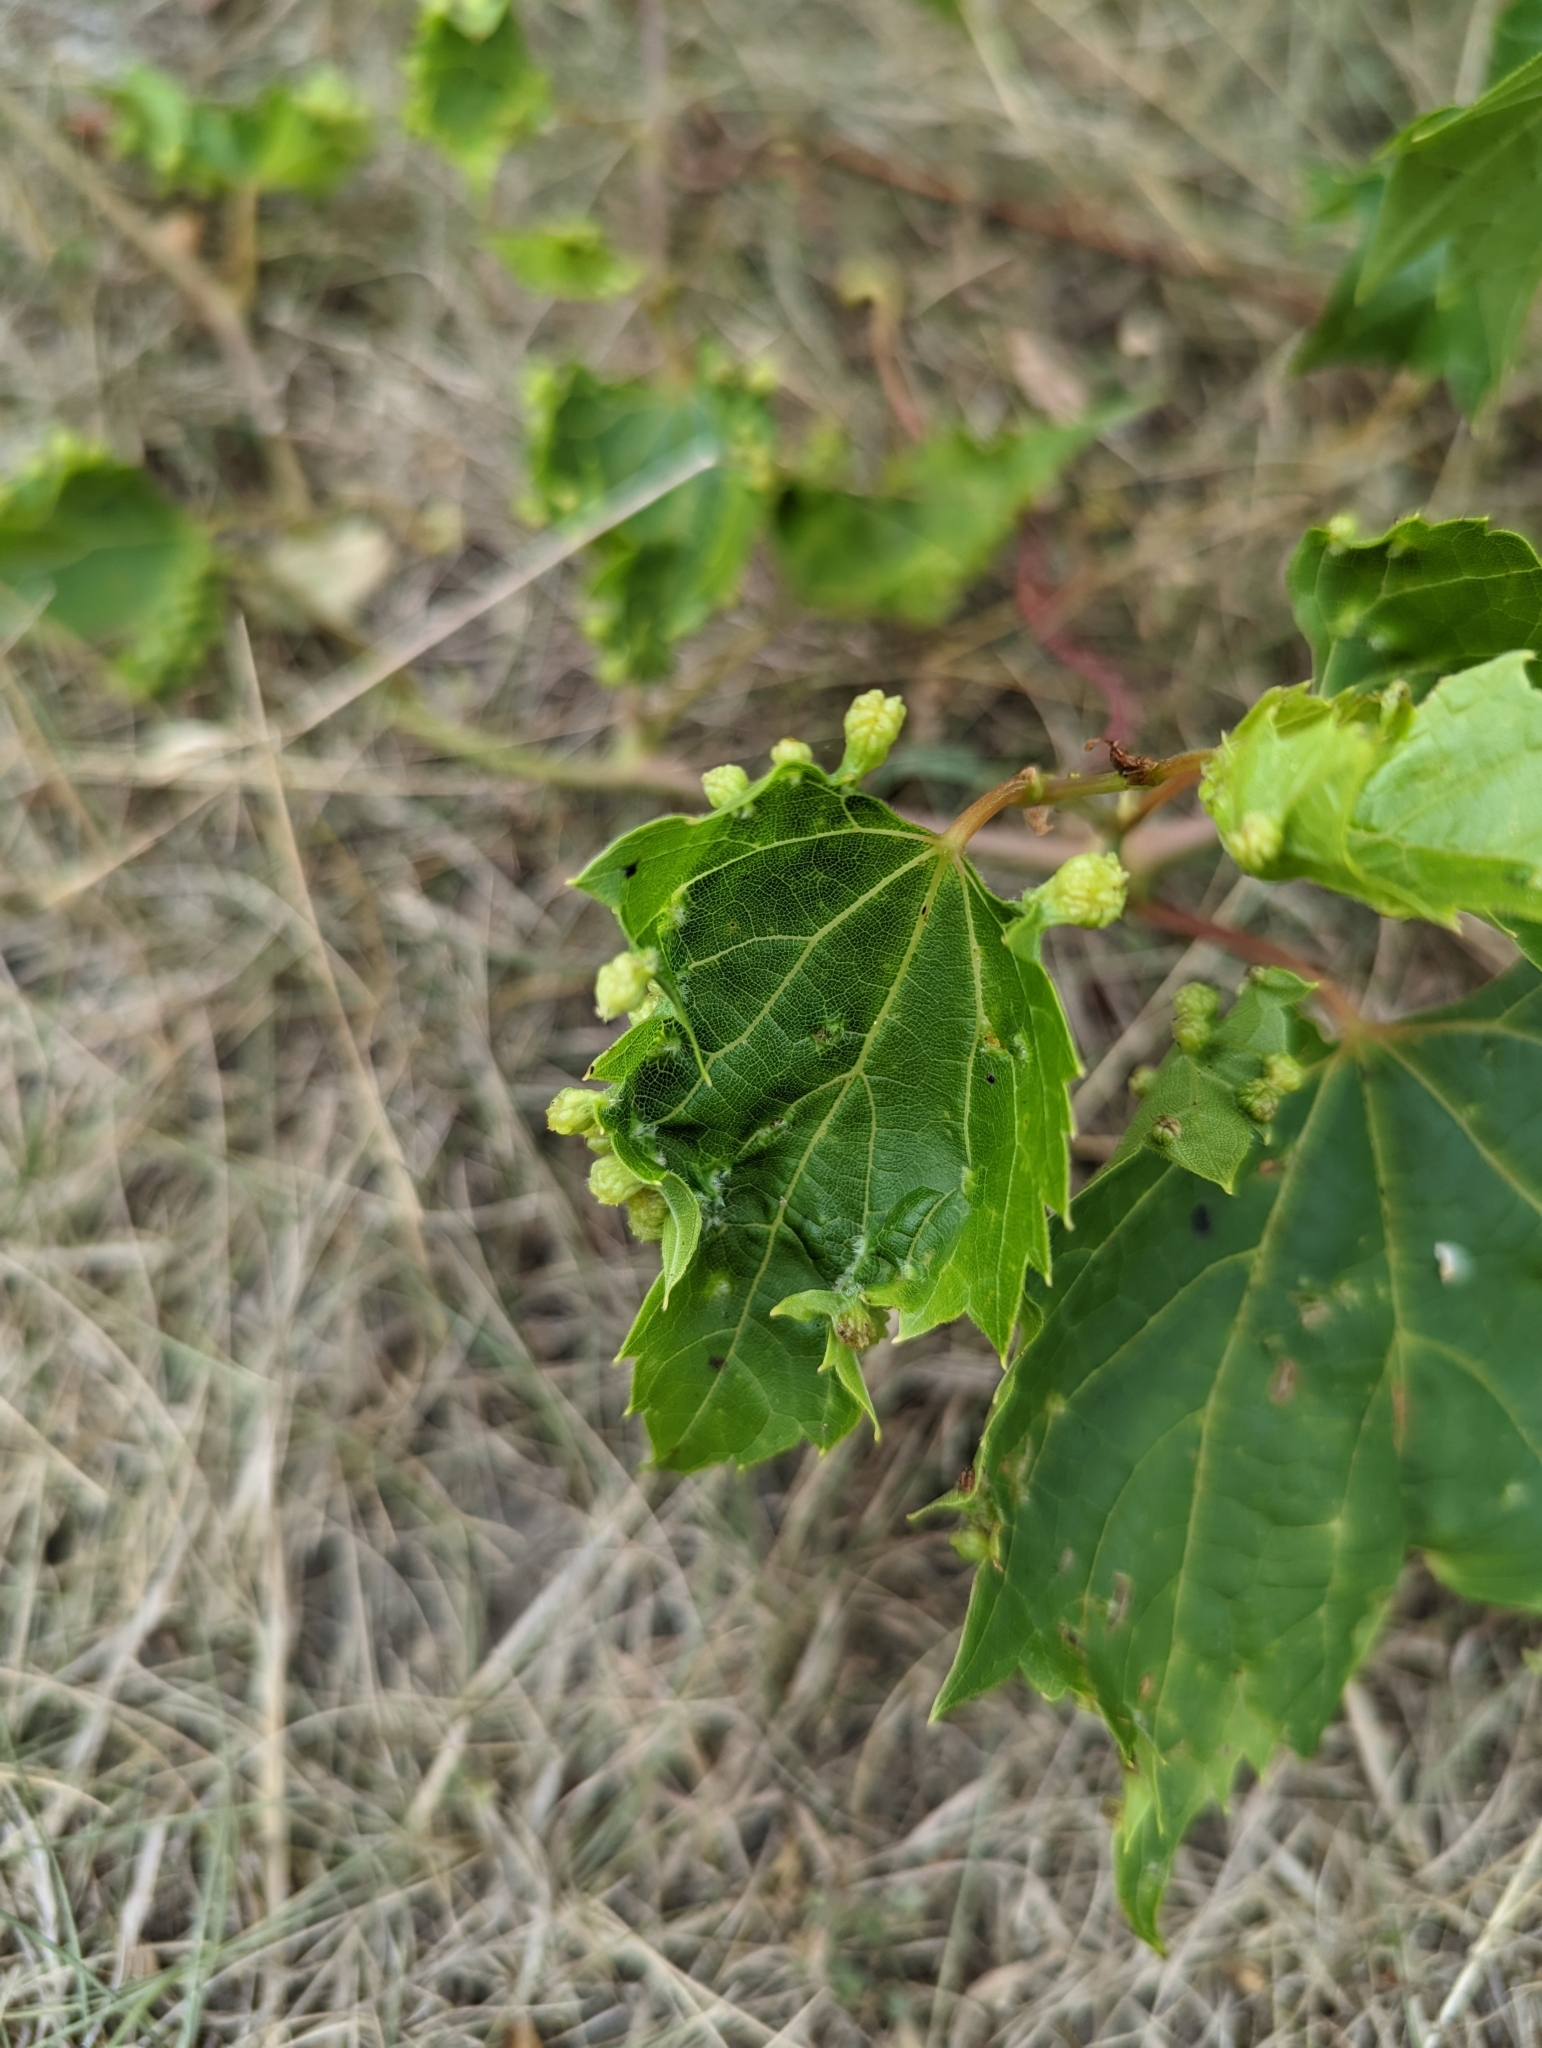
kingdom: Animalia
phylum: Arthropoda
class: Insecta
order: Hemiptera
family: Phylloxeridae
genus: Daktulosphaira
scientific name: Daktulosphaira vitifoliae
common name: Grape phylloxera
